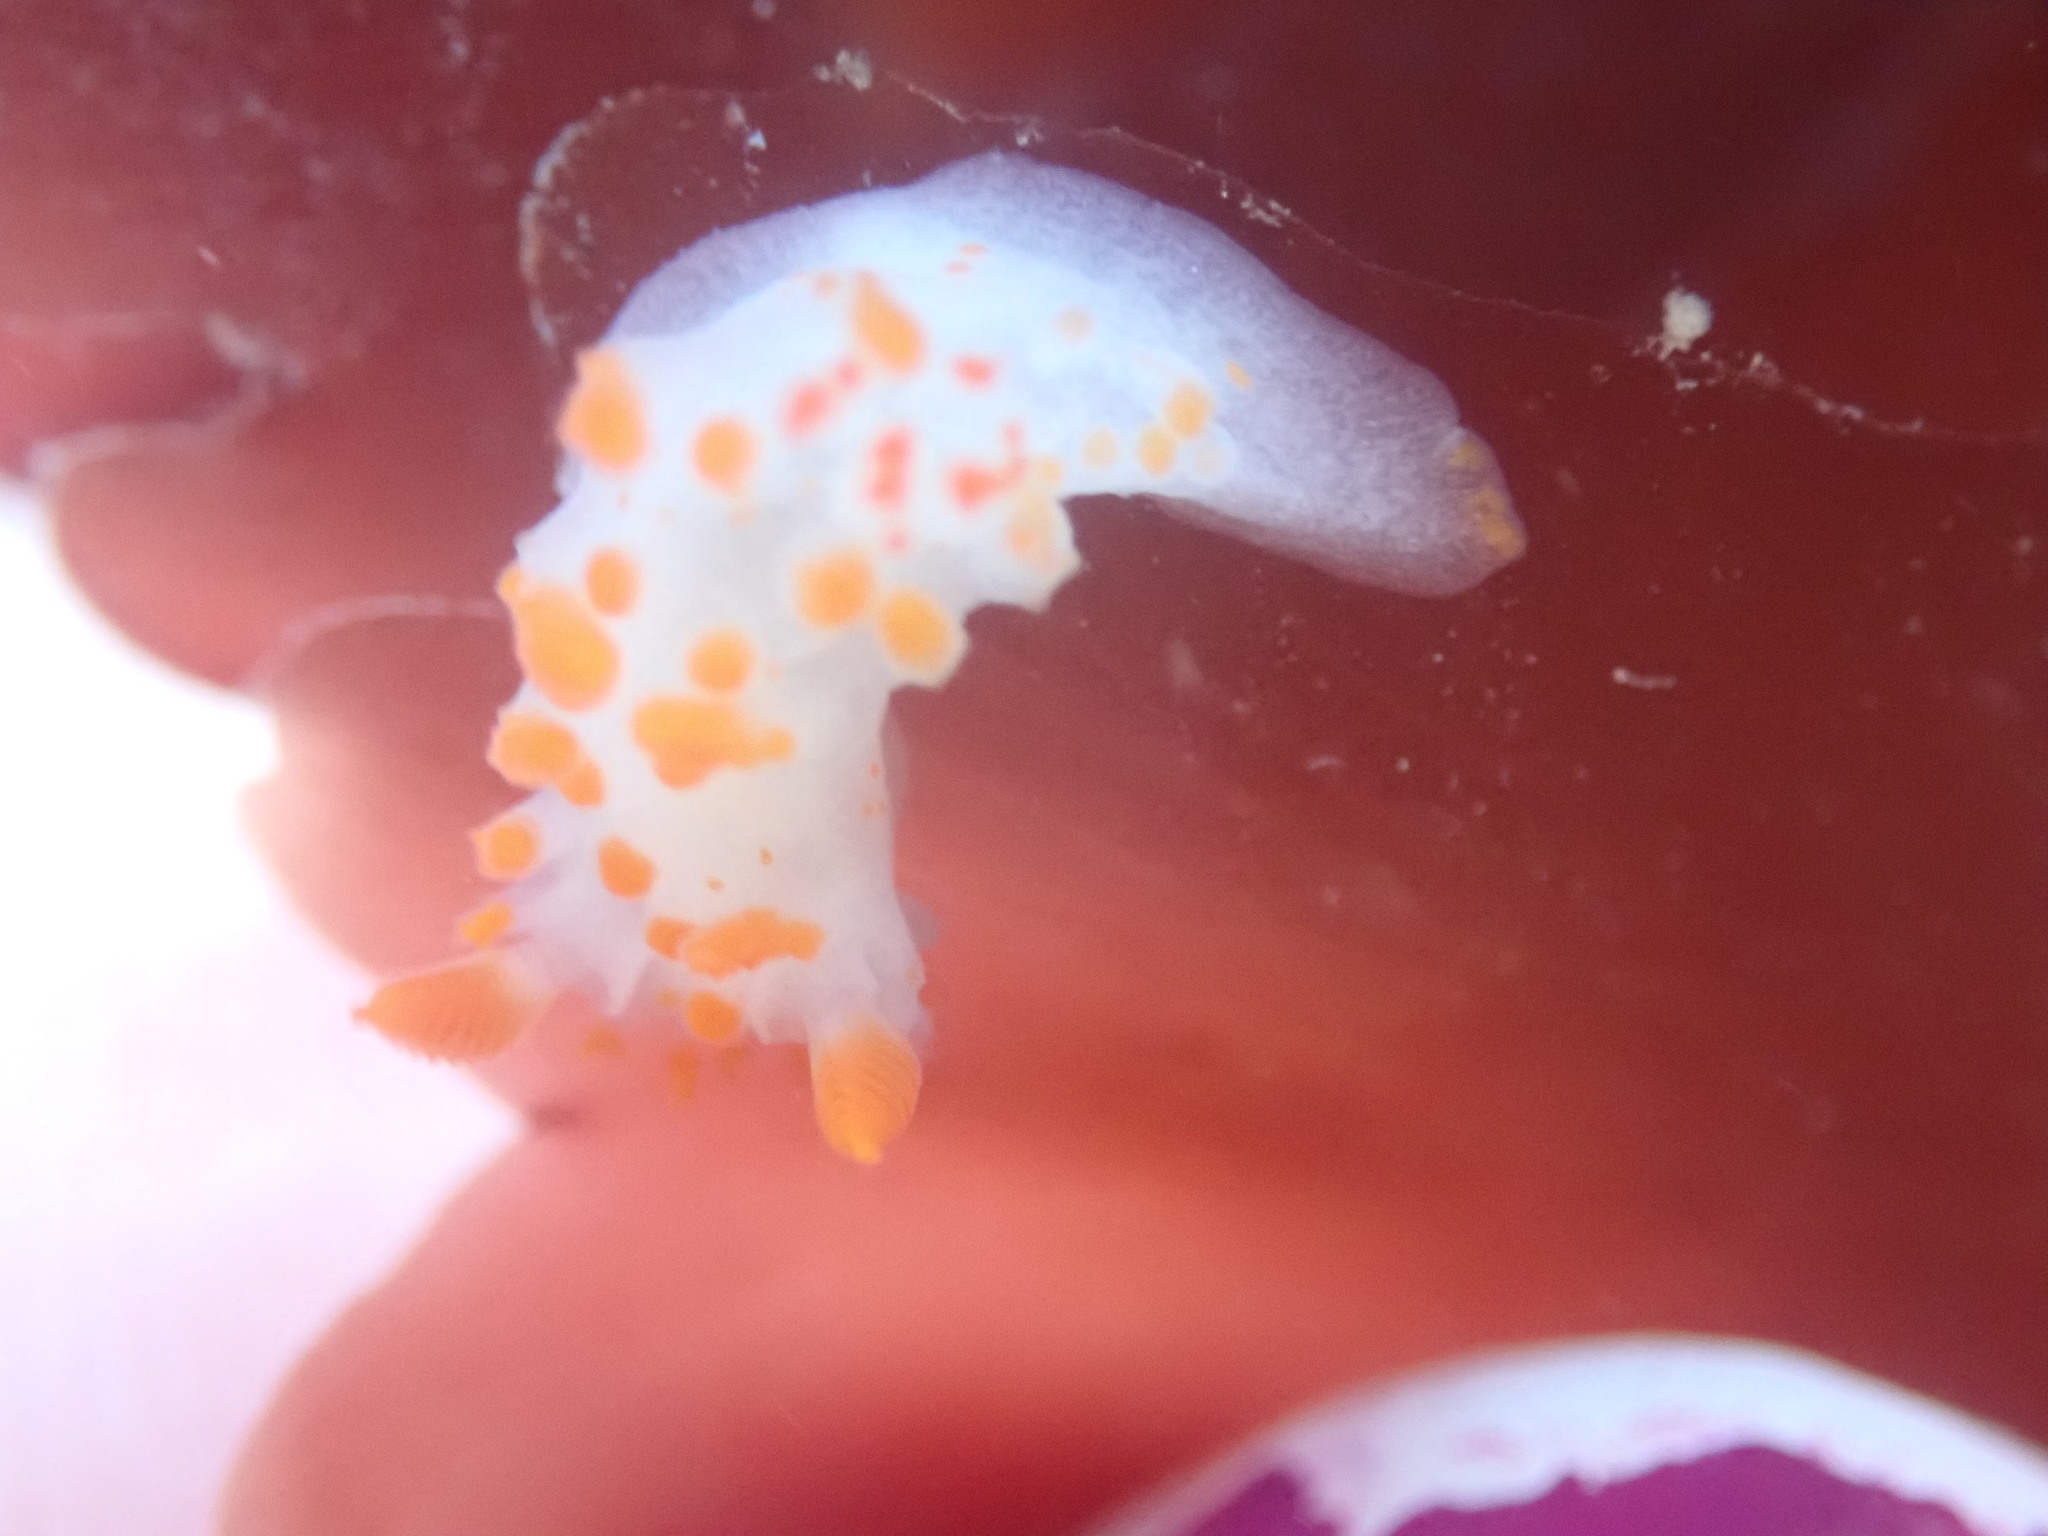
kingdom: Animalia
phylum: Mollusca
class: Gastropoda
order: Nudibranchia
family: Polyceridae
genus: Triopha
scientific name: Triopha catalinae
